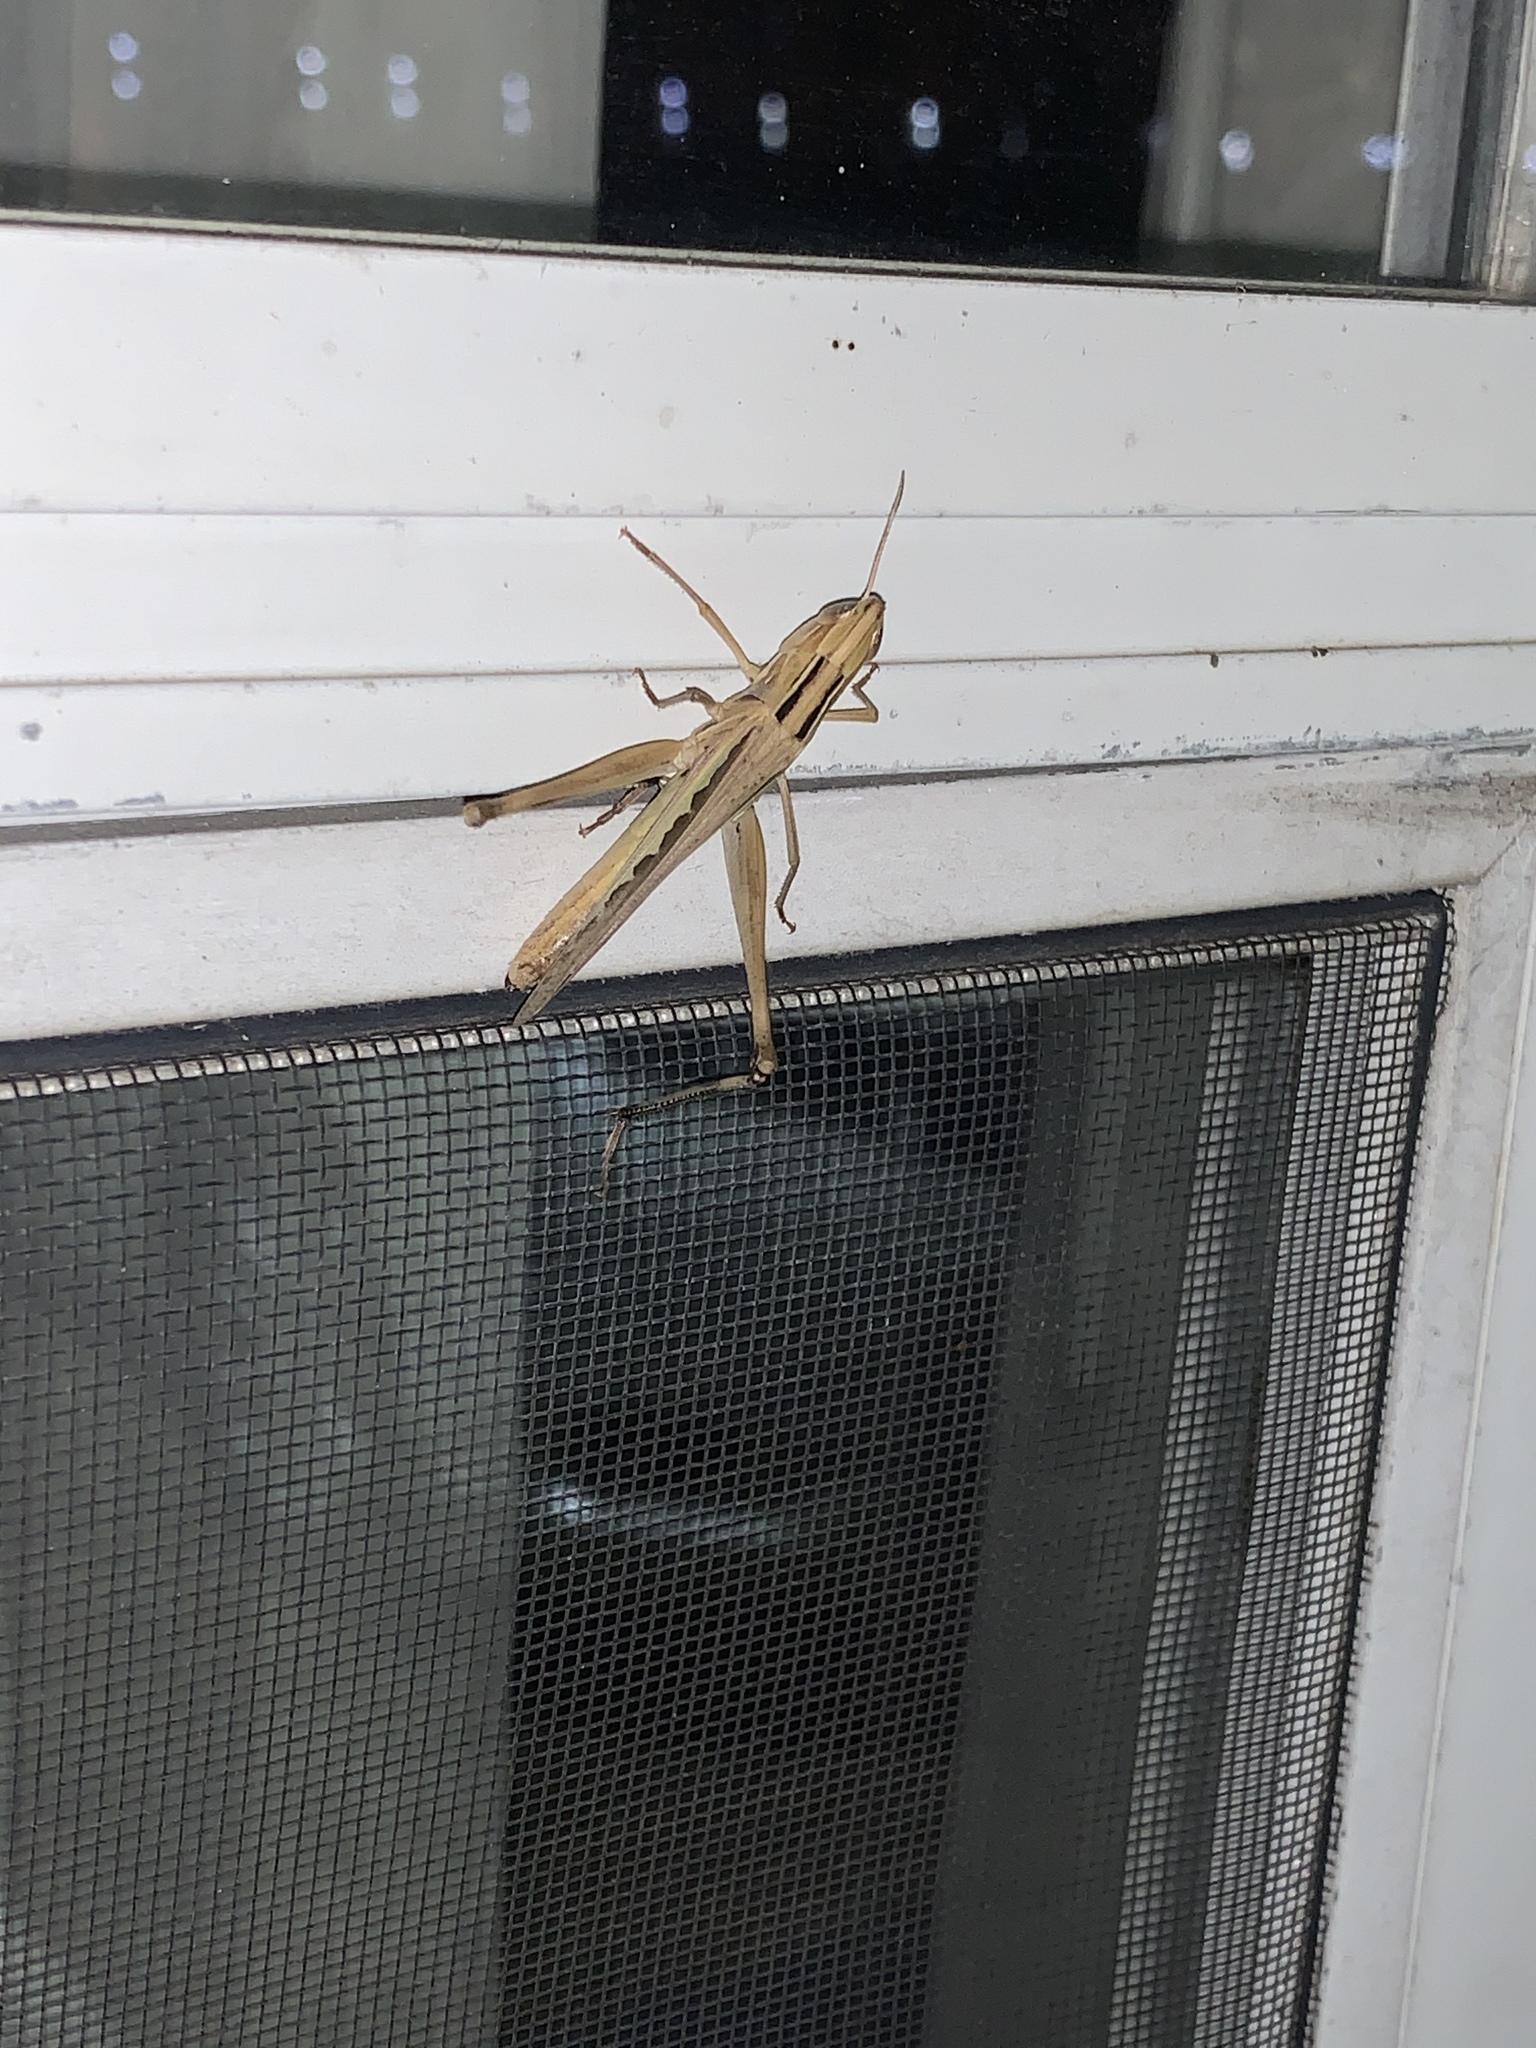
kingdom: Animalia
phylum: Arthropoda
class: Insecta
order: Orthoptera
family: Acrididae
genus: Syrbula
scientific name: Syrbula admirabilis
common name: Handsome grasshopper
